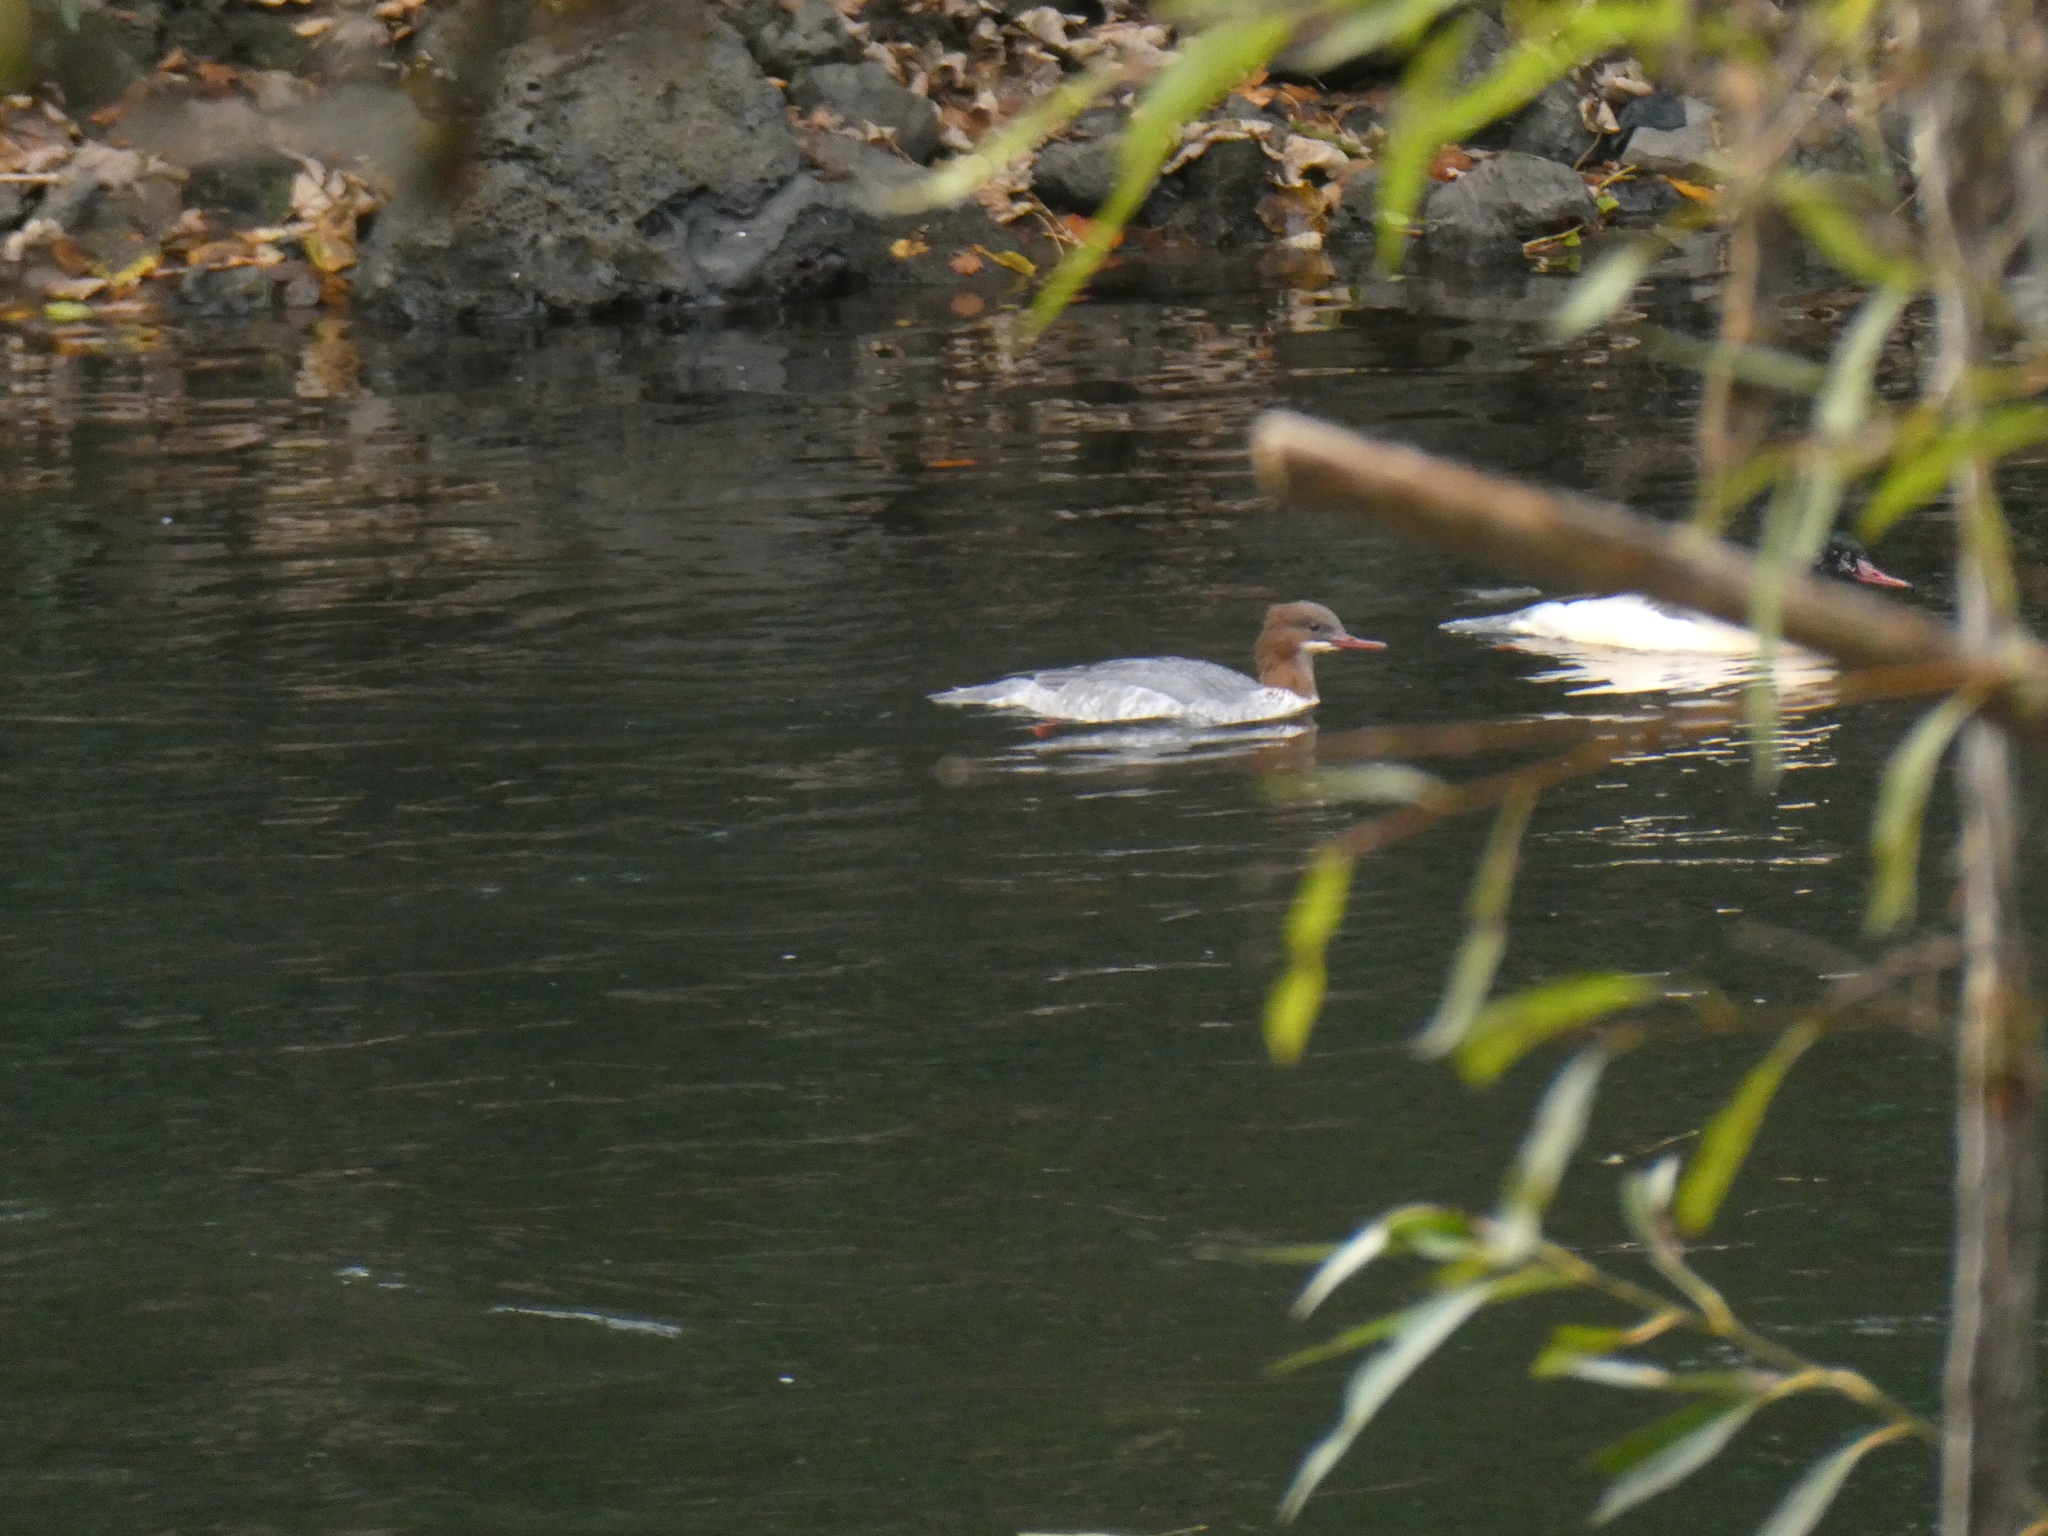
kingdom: Animalia
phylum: Chordata
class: Aves
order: Anseriformes
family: Anatidae
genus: Mergus
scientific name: Mergus merganser
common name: Common merganser
